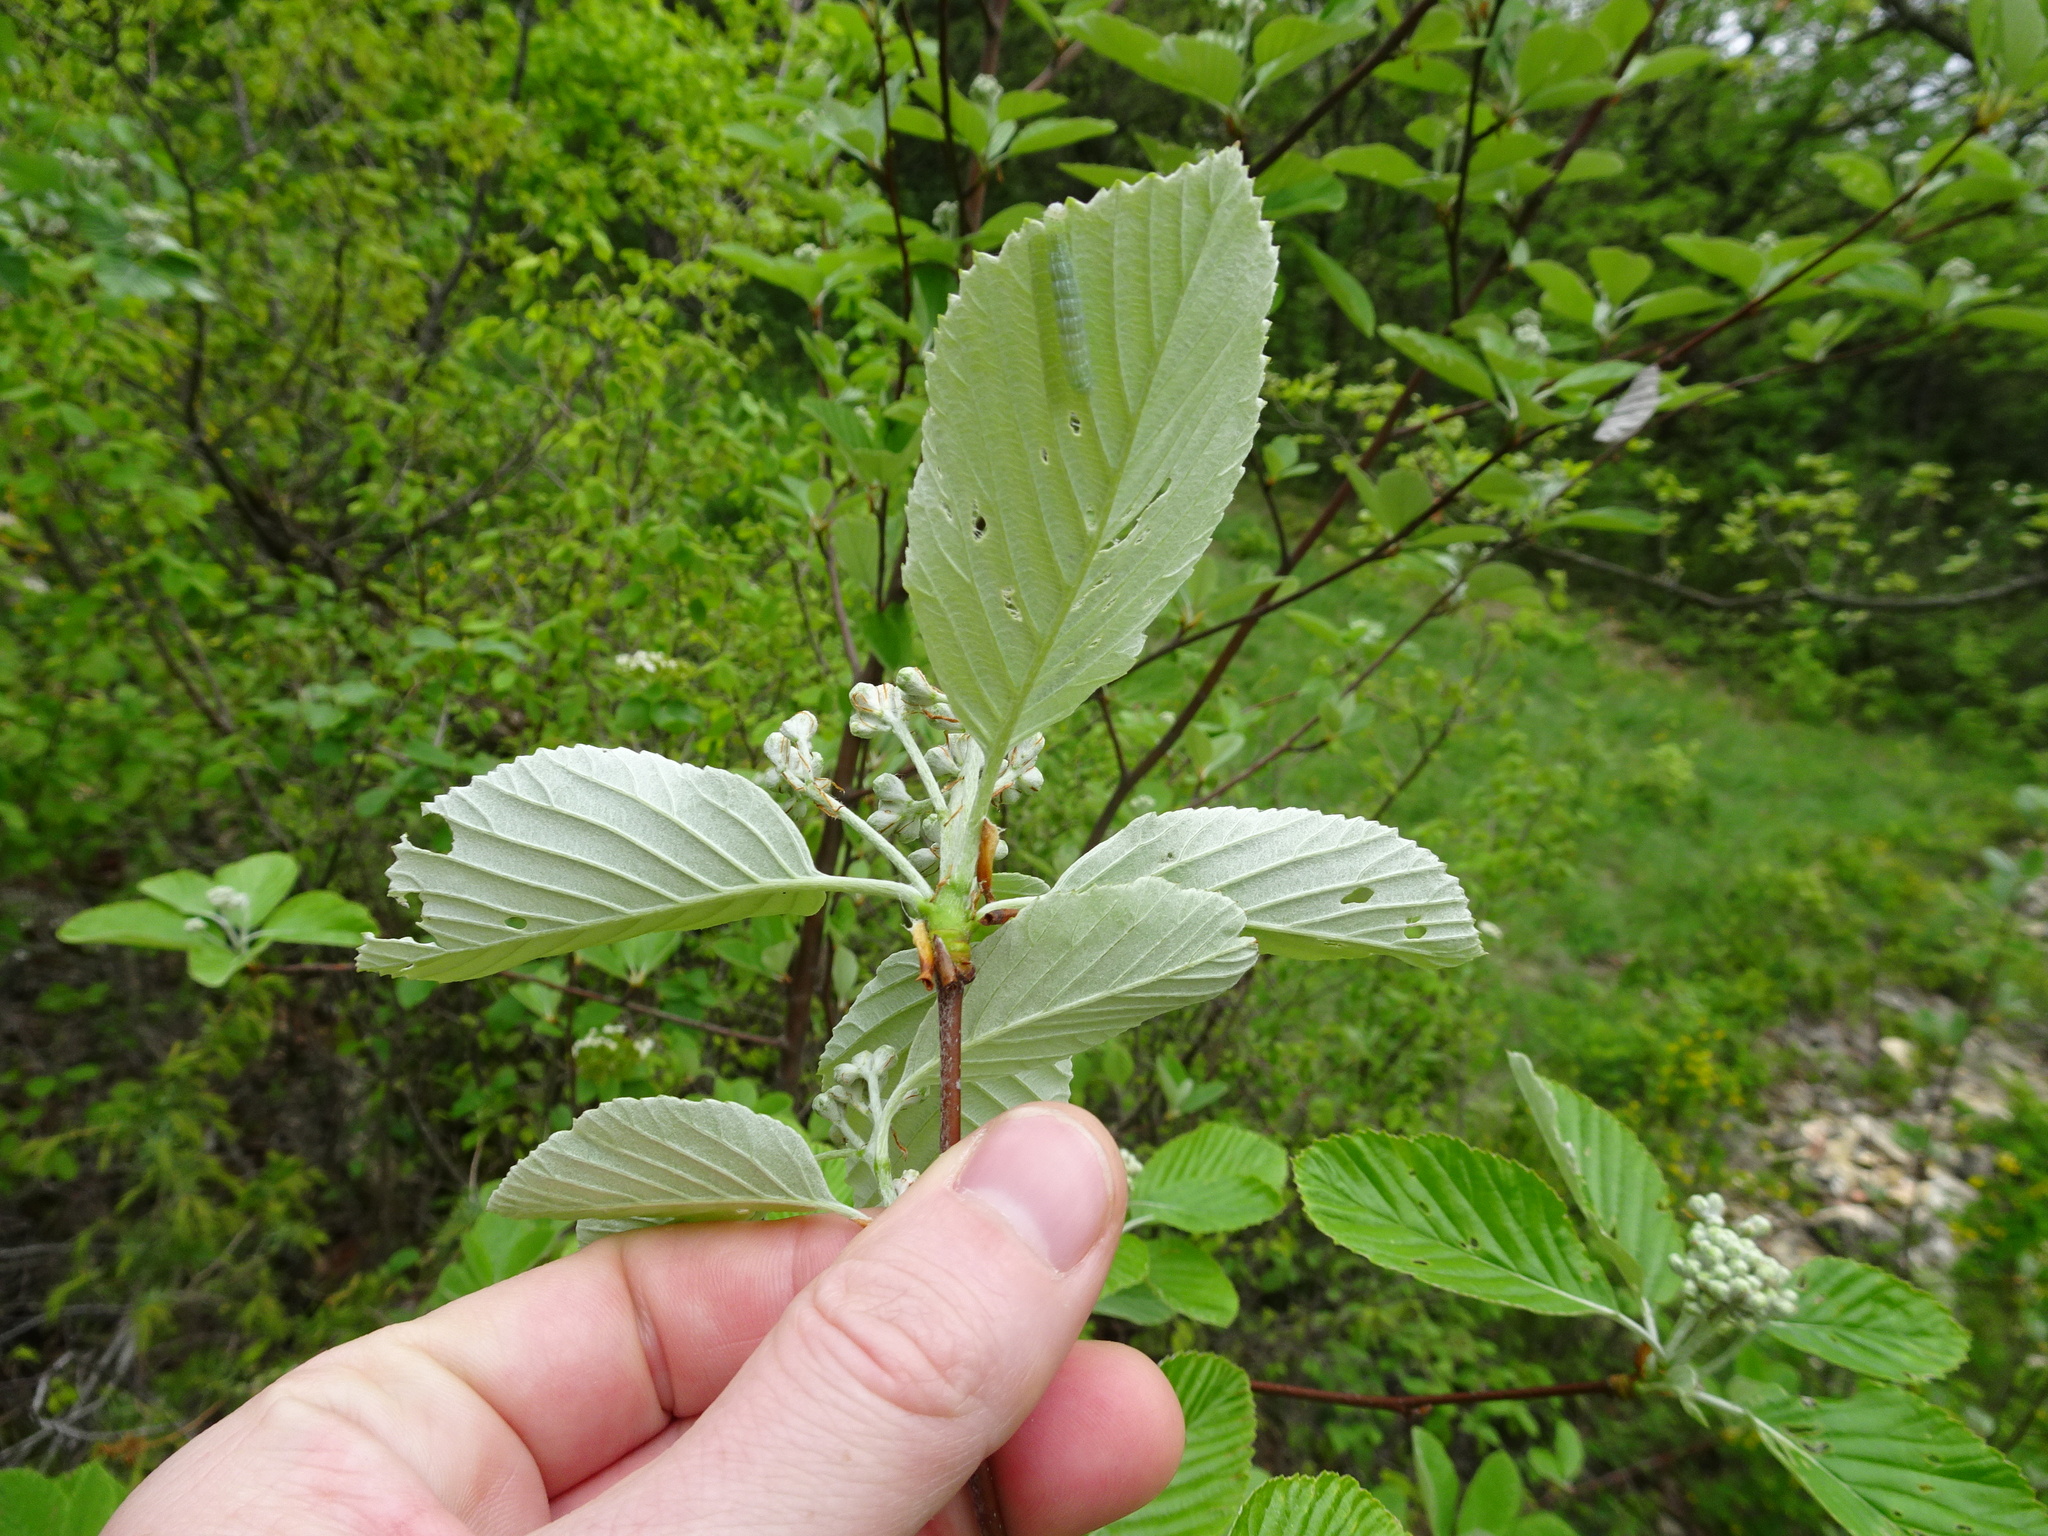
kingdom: Plantae
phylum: Tracheophyta
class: Magnoliopsida
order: Rosales
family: Rosaceae
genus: Aria
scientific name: Aria edulis
